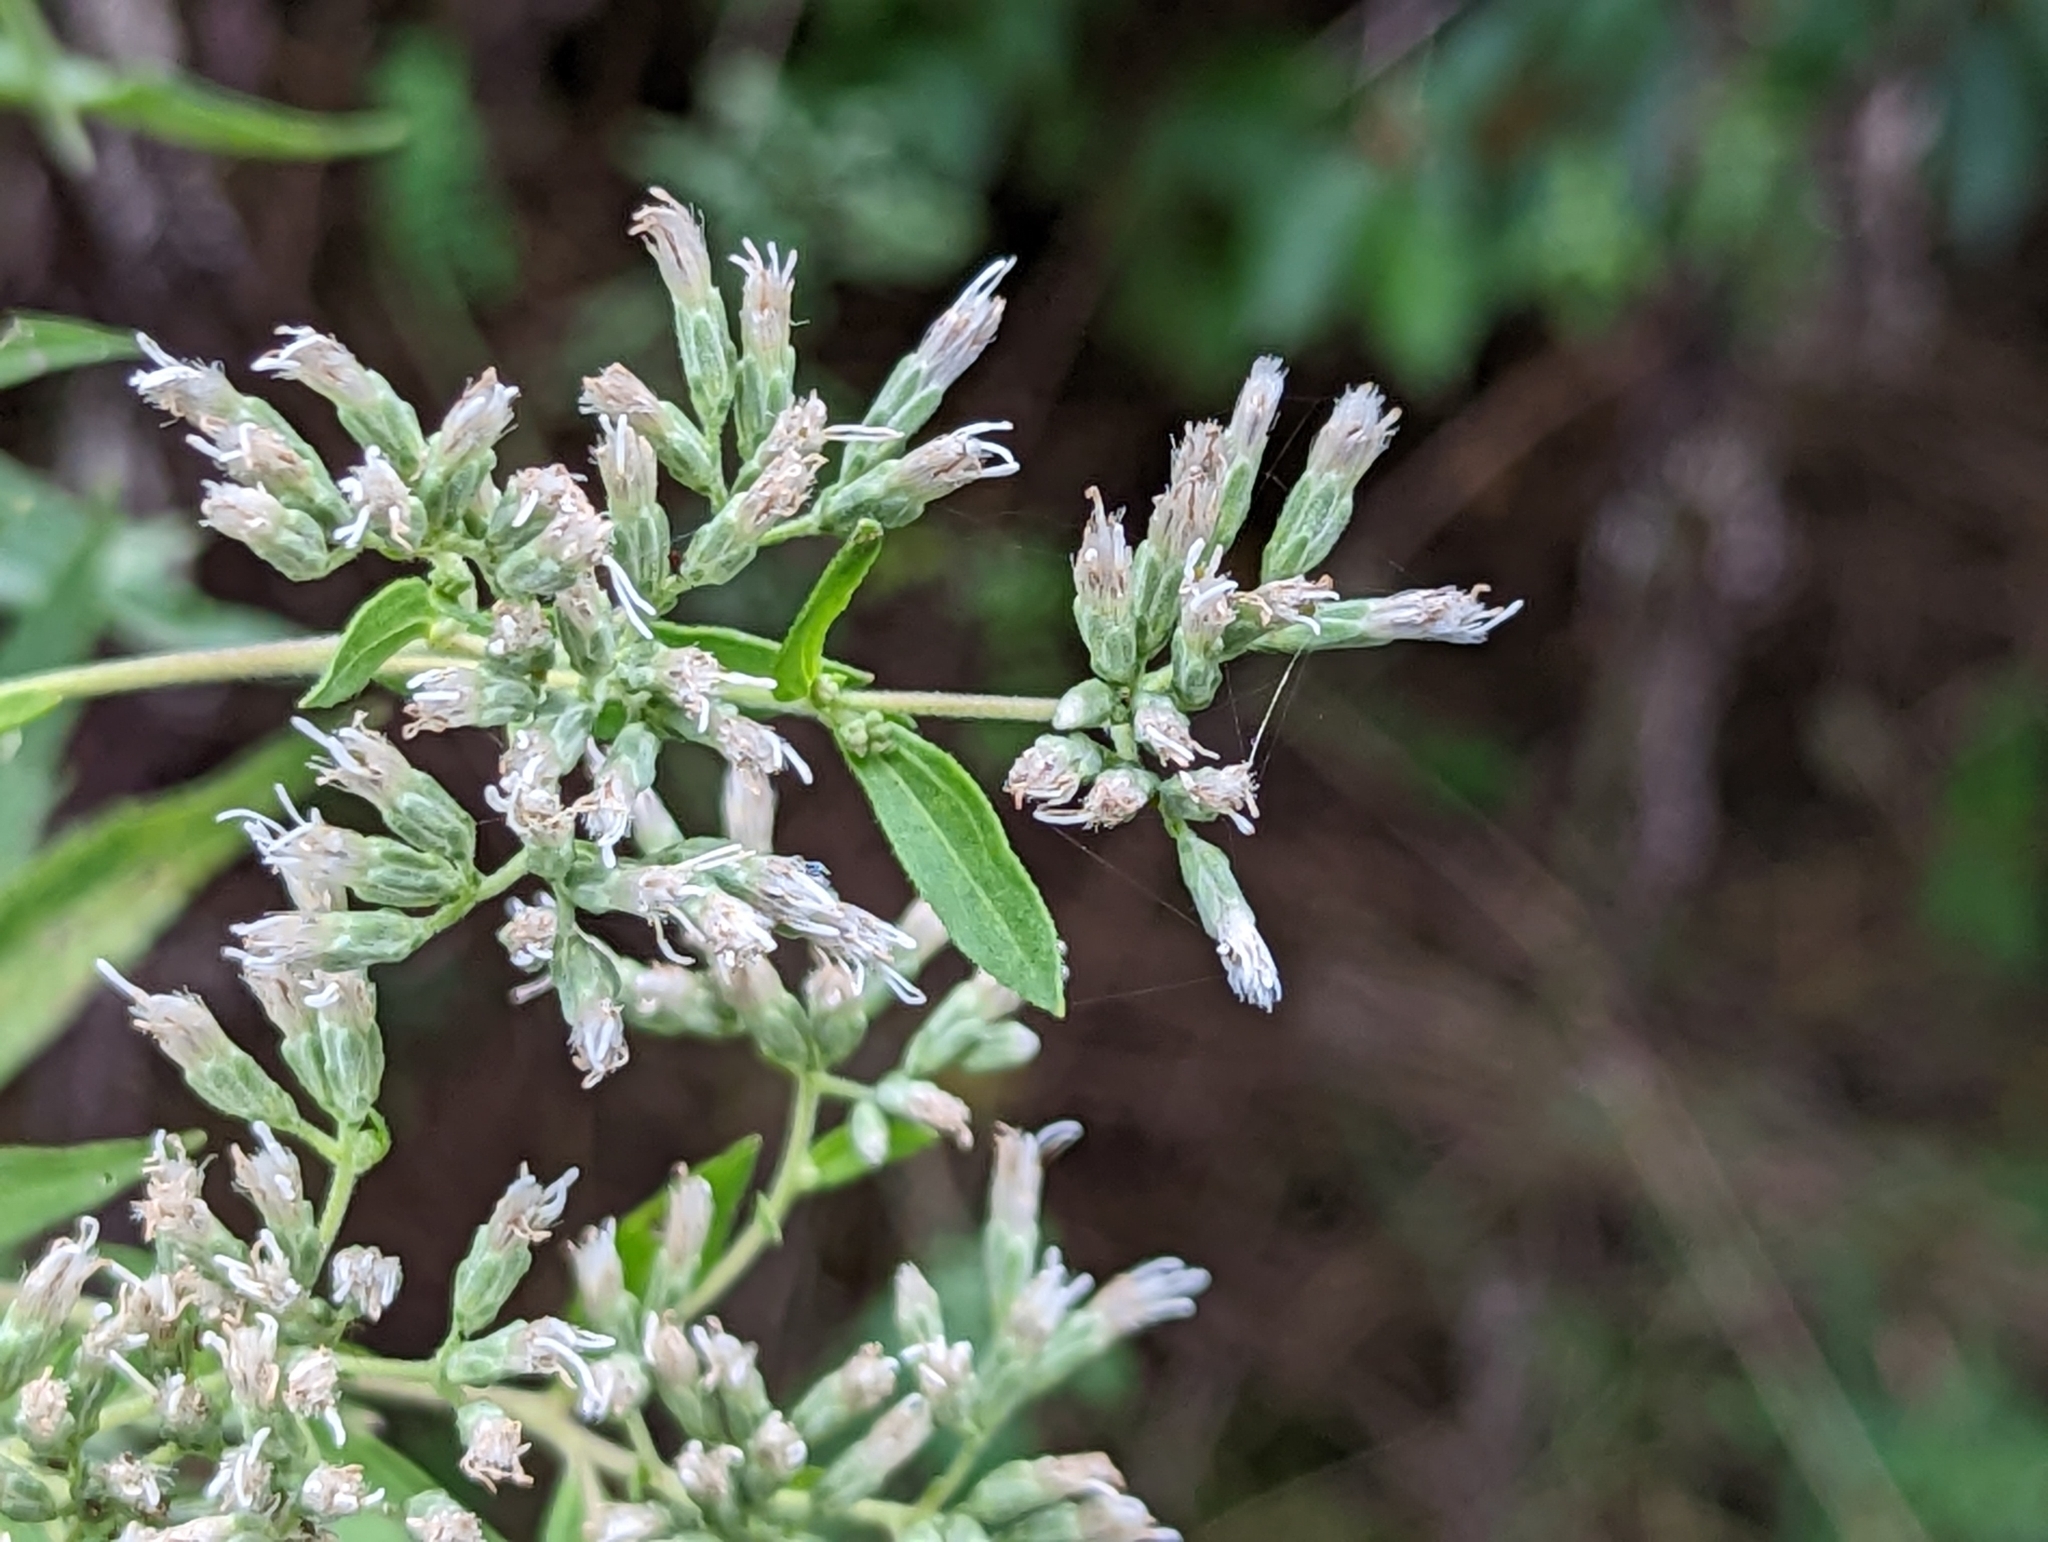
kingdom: Plantae
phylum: Tracheophyta
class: Magnoliopsida
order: Asterales
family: Asteraceae
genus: Eupatorium
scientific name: Eupatorium altissimum
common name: Tall thoroughwort
